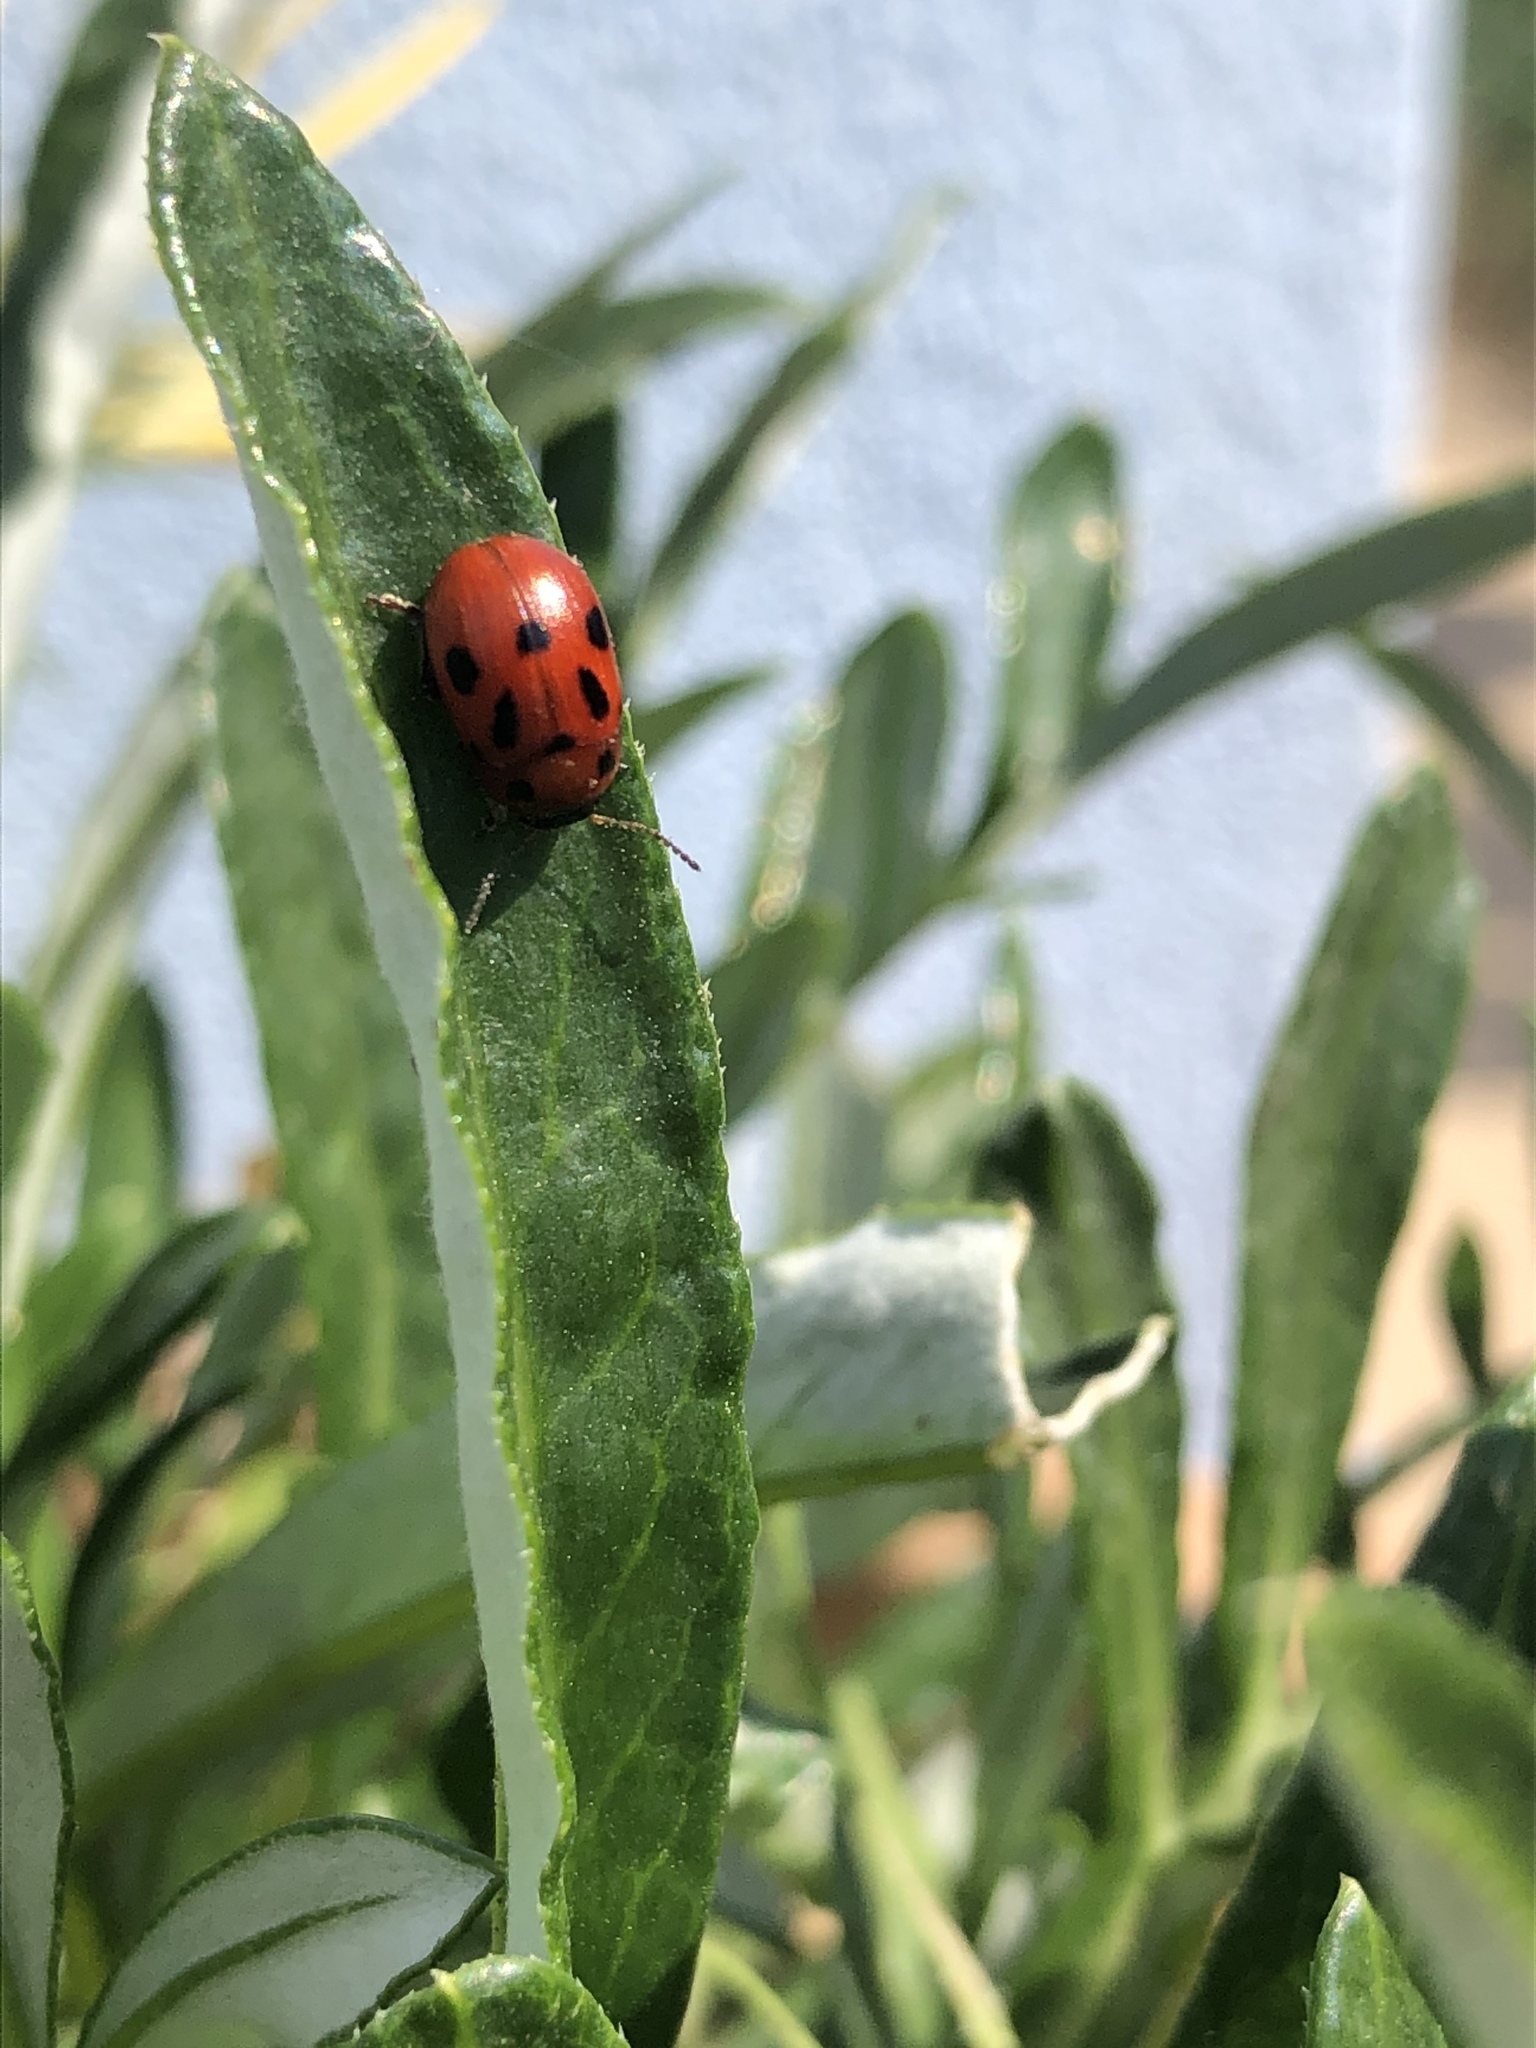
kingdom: Animalia
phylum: Arthropoda
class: Insecta
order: Coleoptera
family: Chrysomelidae
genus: Gonioctena
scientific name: Gonioctena fornicata
